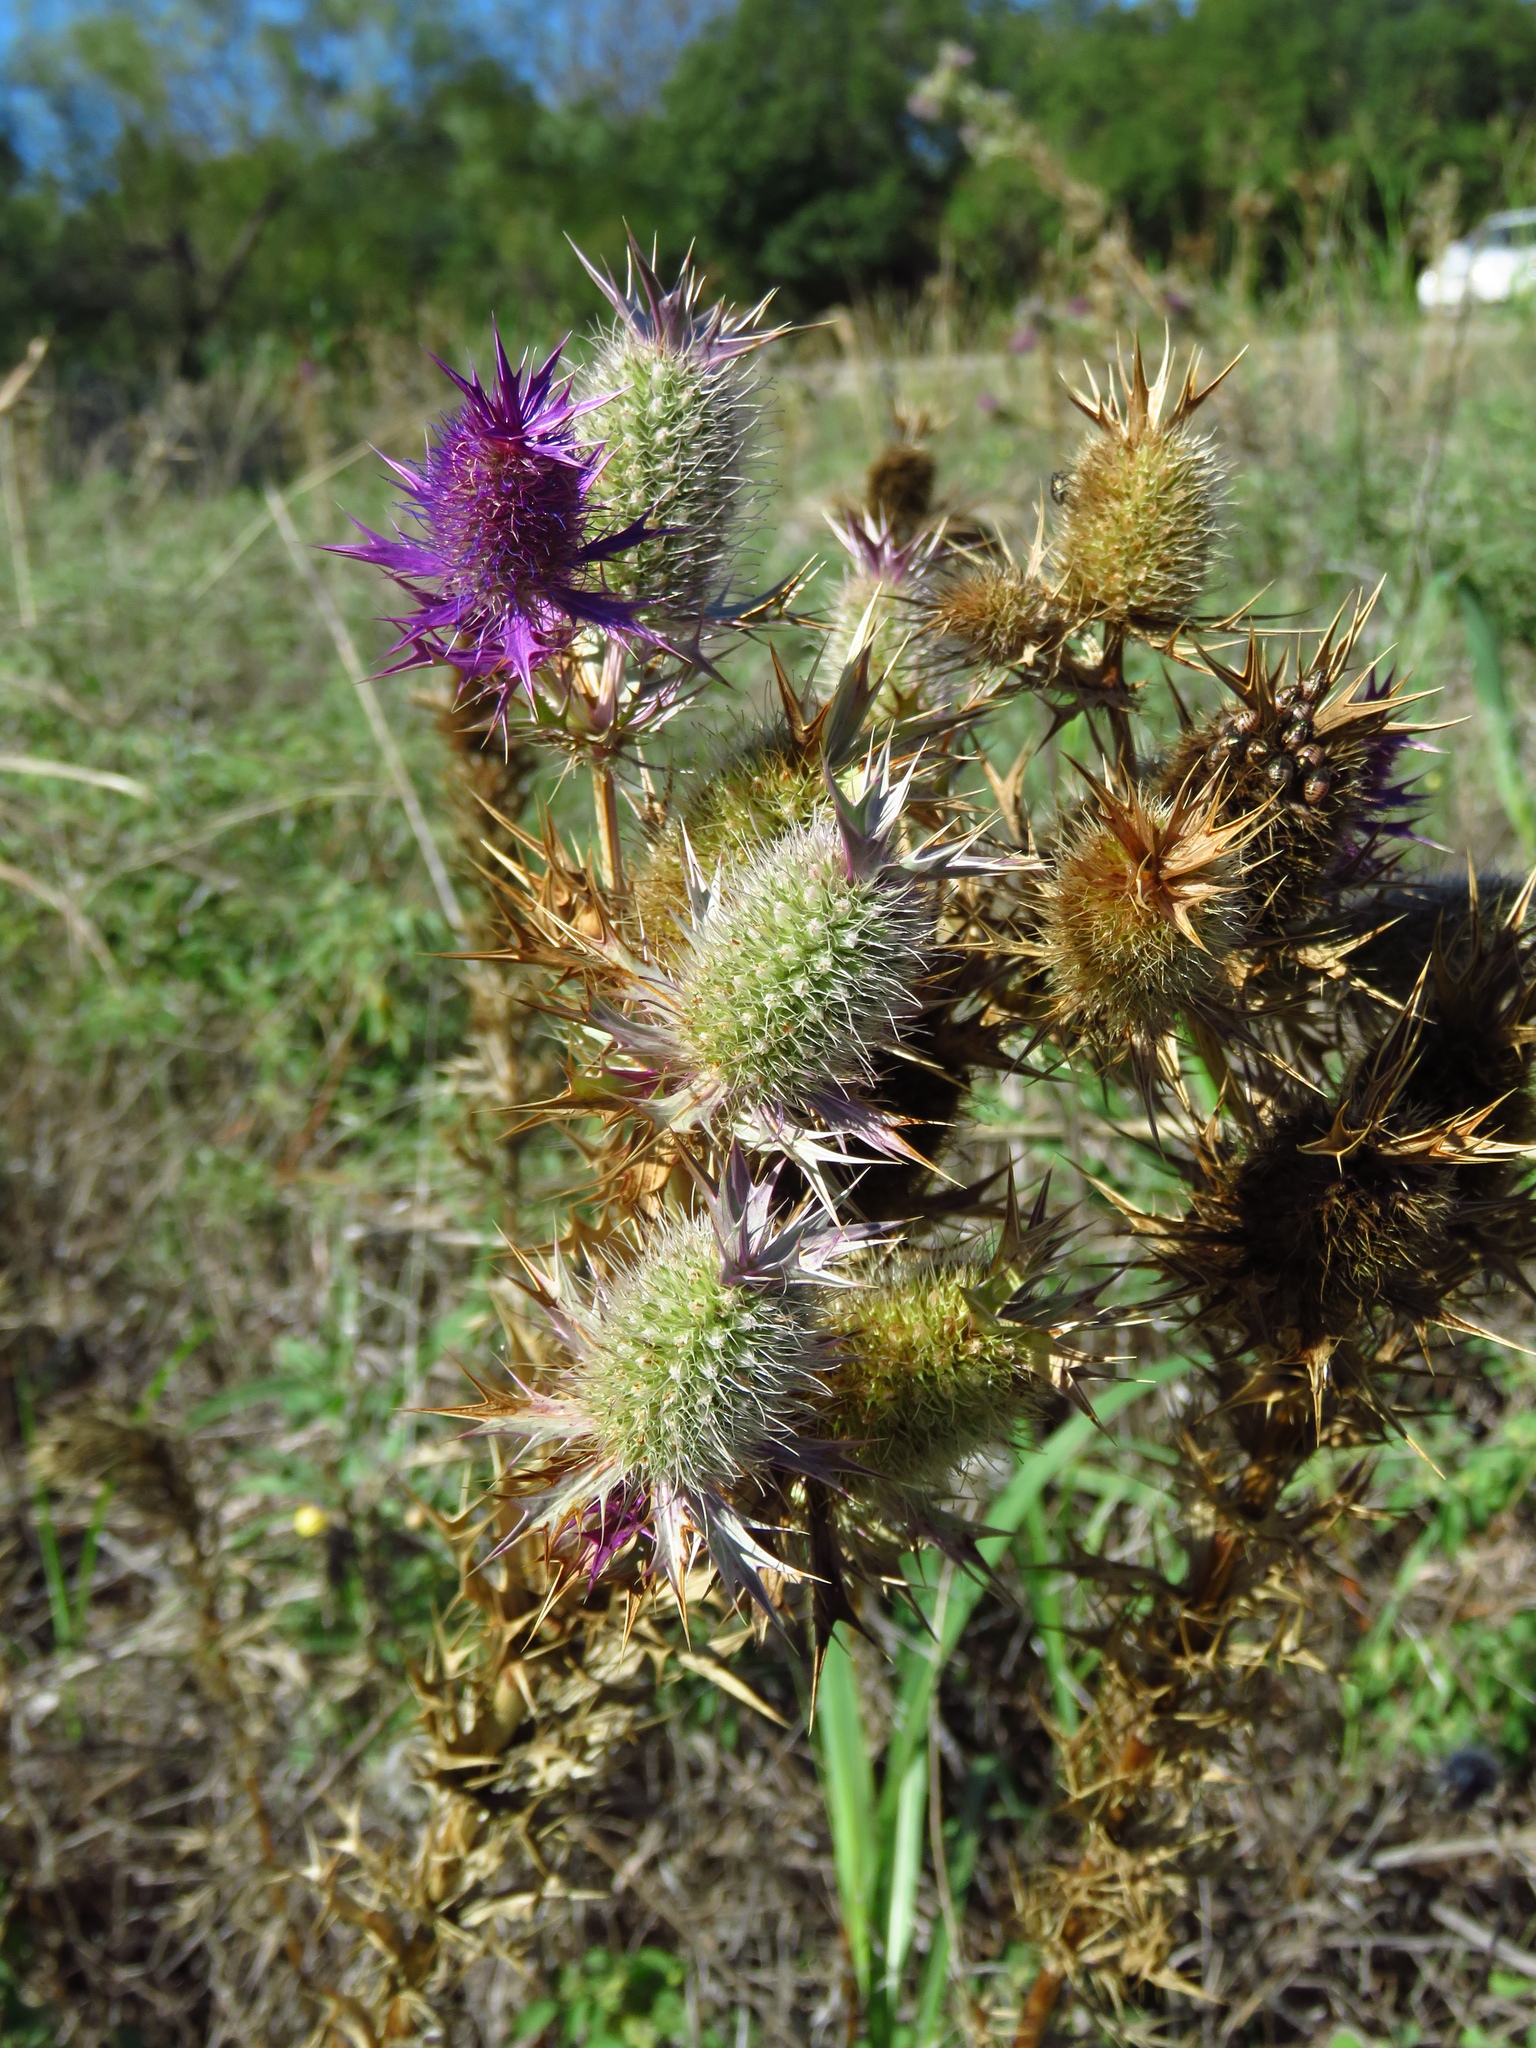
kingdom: Plantae
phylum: Tracheophyta
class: Magnoliopsida
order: Apiales
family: Apiaceae
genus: Eryngium
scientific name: Eryngium leavenworthii
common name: Leavenworth's eryngo
